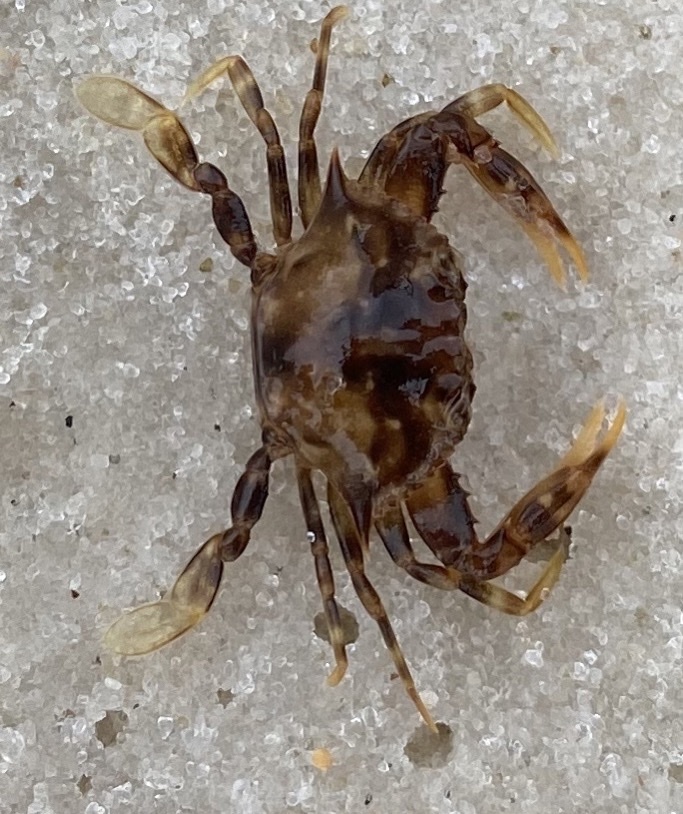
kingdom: Animalia
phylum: Arthropoda
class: Malacostraca
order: Decapoda
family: Portunidae
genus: Portunus
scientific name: Portunus sayi
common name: Sargassum crab
